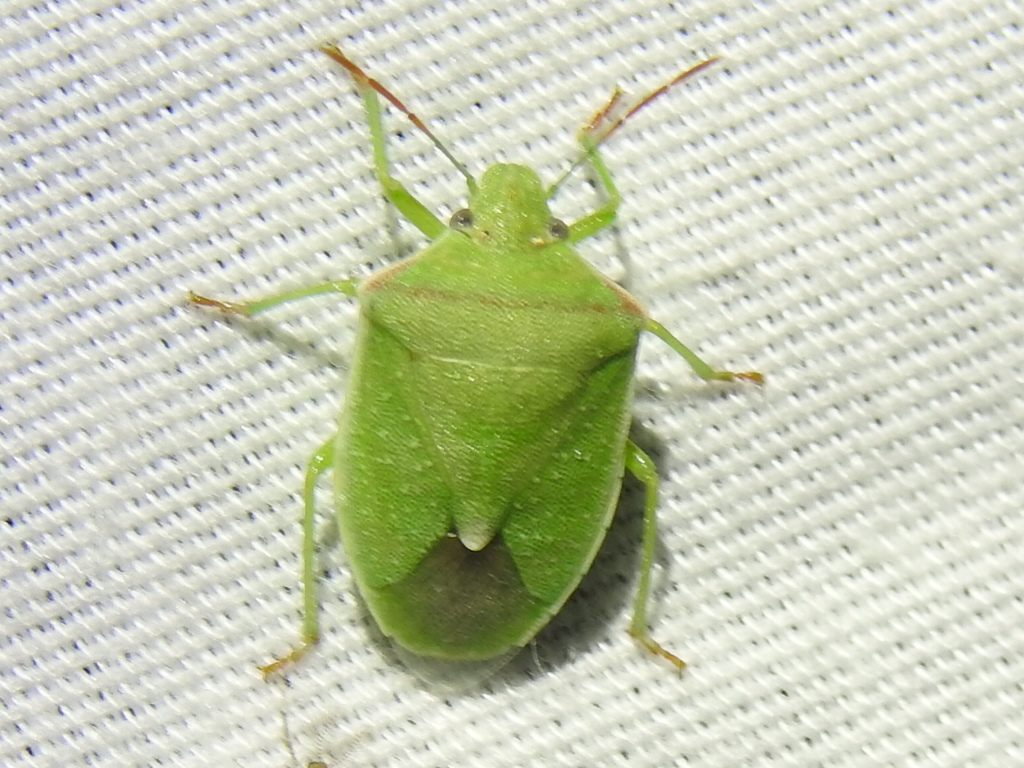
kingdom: Animalia
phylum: Arthropoda
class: Insecta
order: Hemiptera
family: Pentatomidae
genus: Thyanta
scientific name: Thyanta accerra
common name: Stink bug
